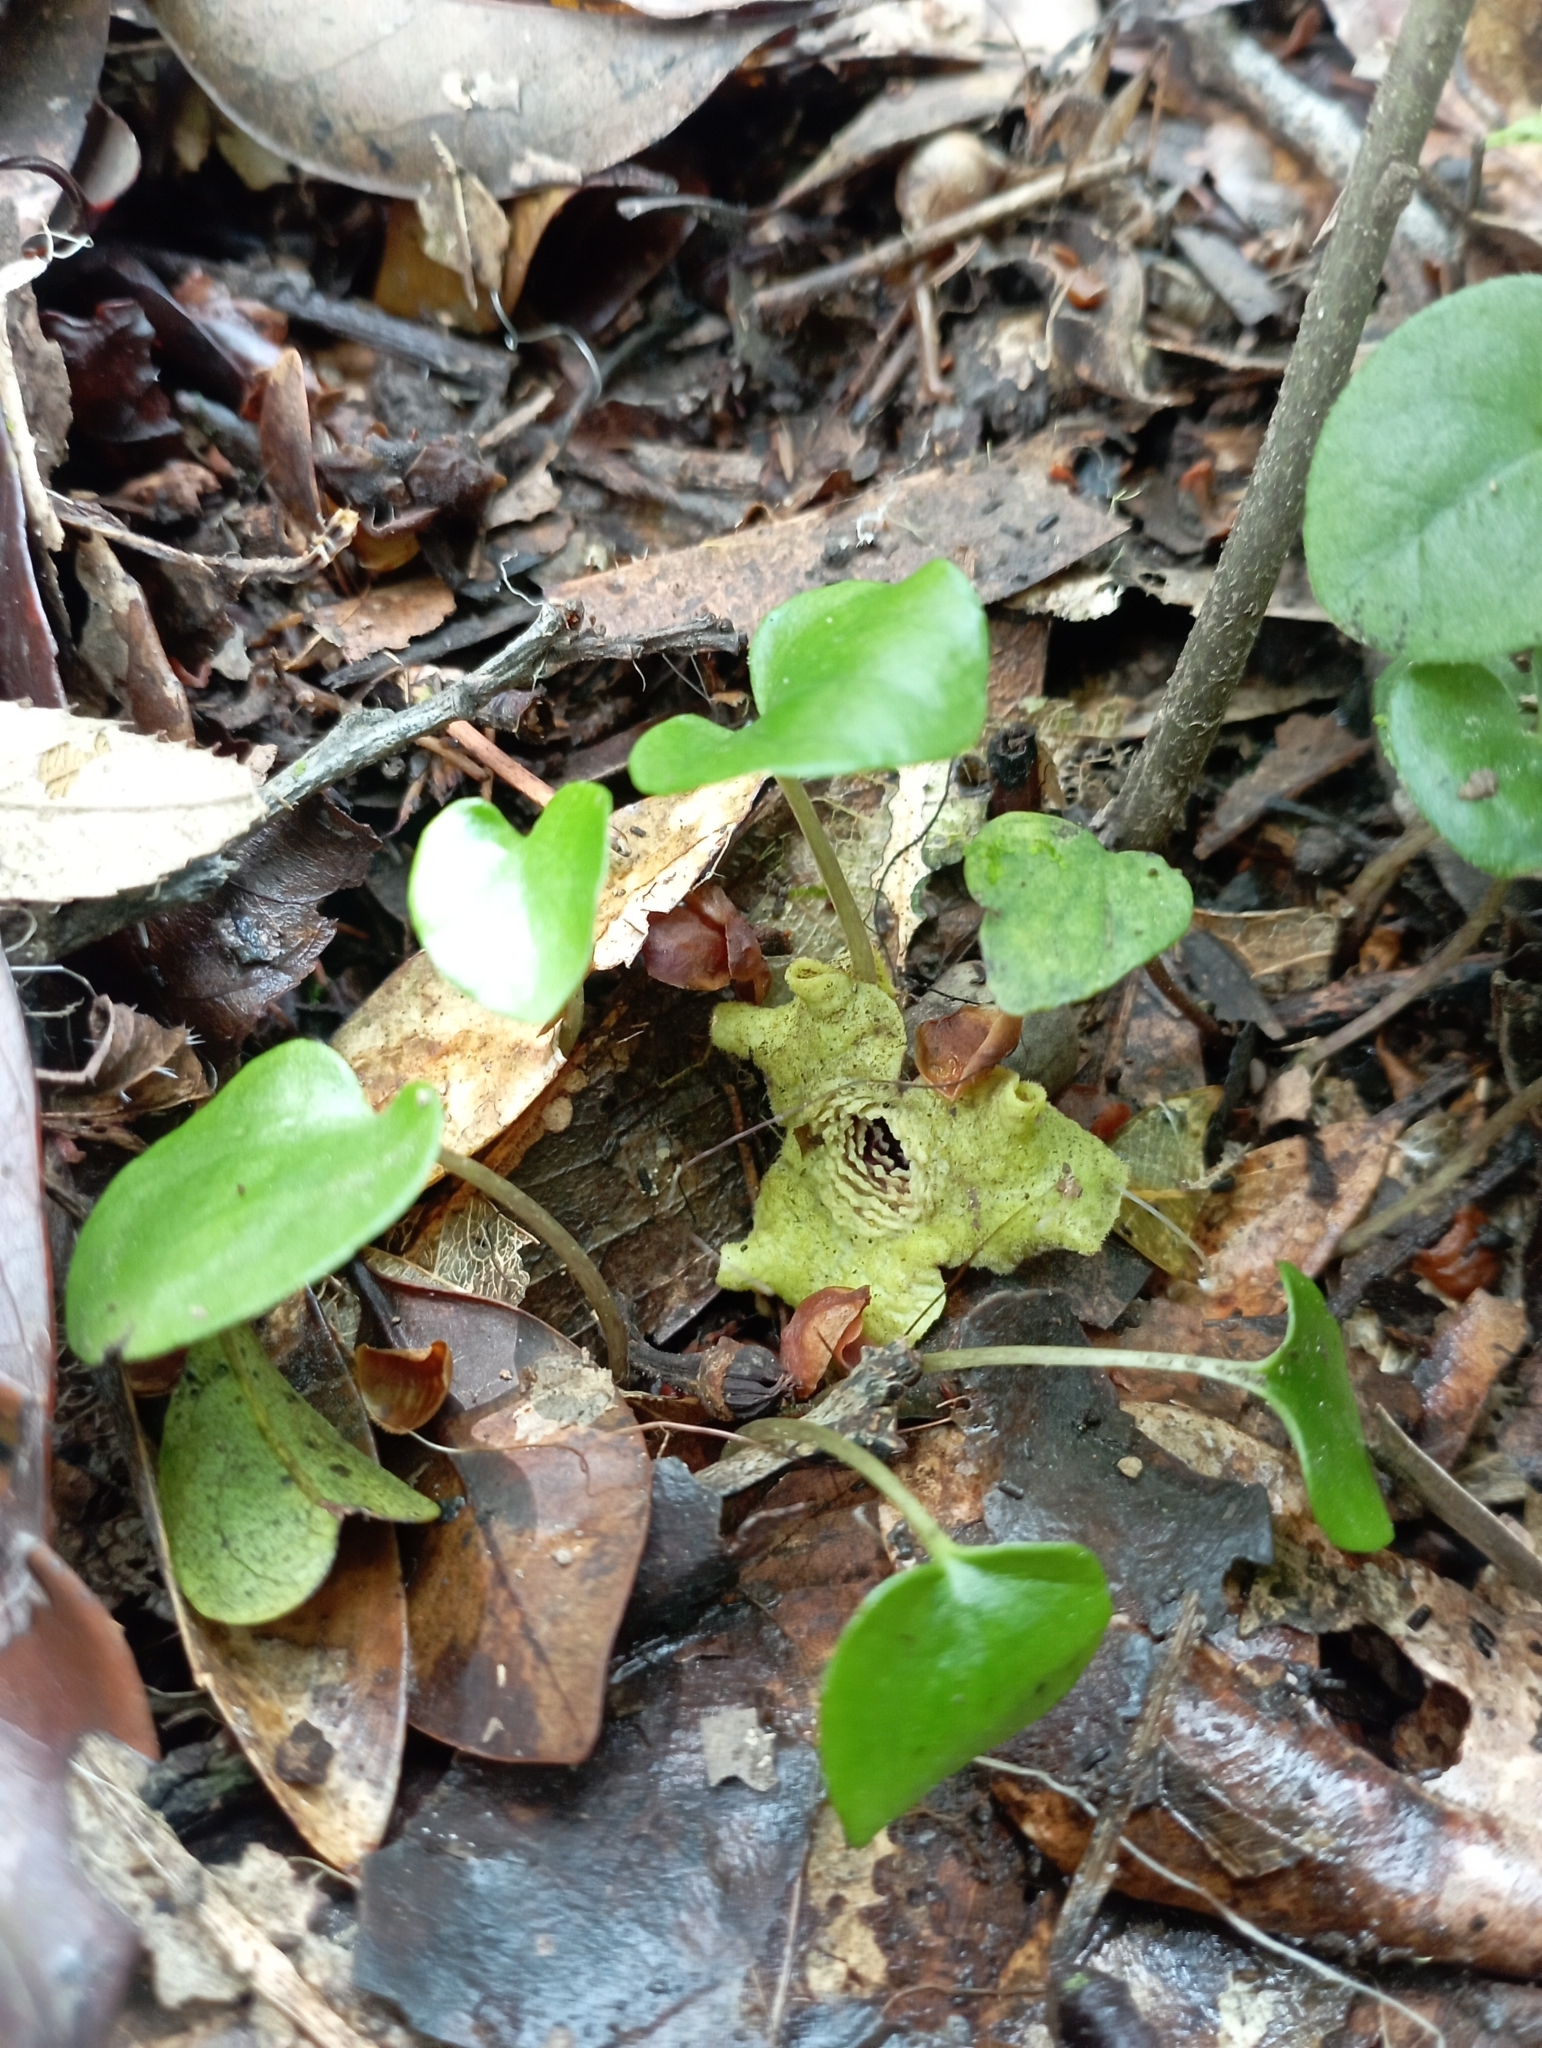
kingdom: Plantae
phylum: Tracheophyta
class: Magnoliopsida
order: Piperales
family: Aristolochiaceae
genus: Asarum
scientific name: Asarum chatienshanianum
